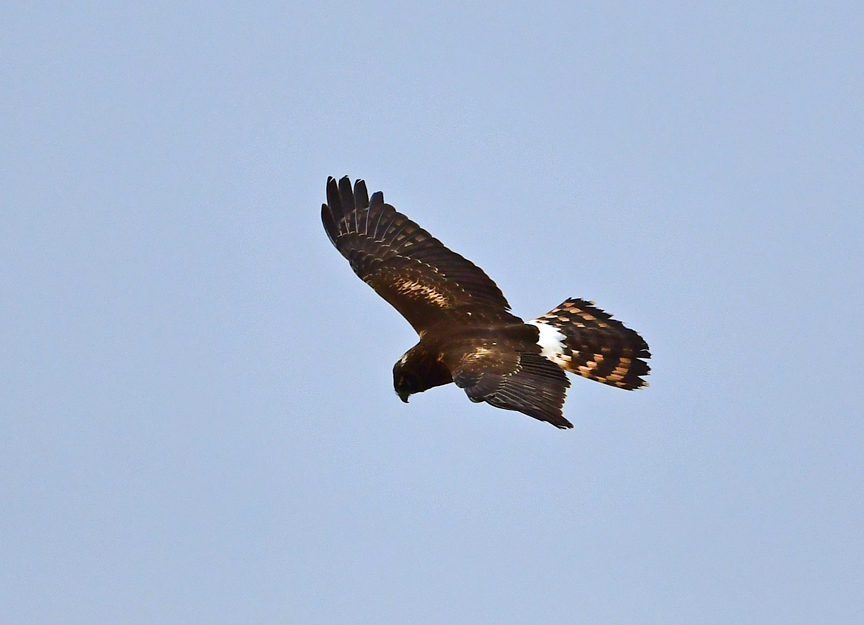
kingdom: Animalia
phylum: Chordata
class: Aves
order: Accipitriformes
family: Accipitridae
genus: Circus
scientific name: Circus cyaneus
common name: Hen harrier
